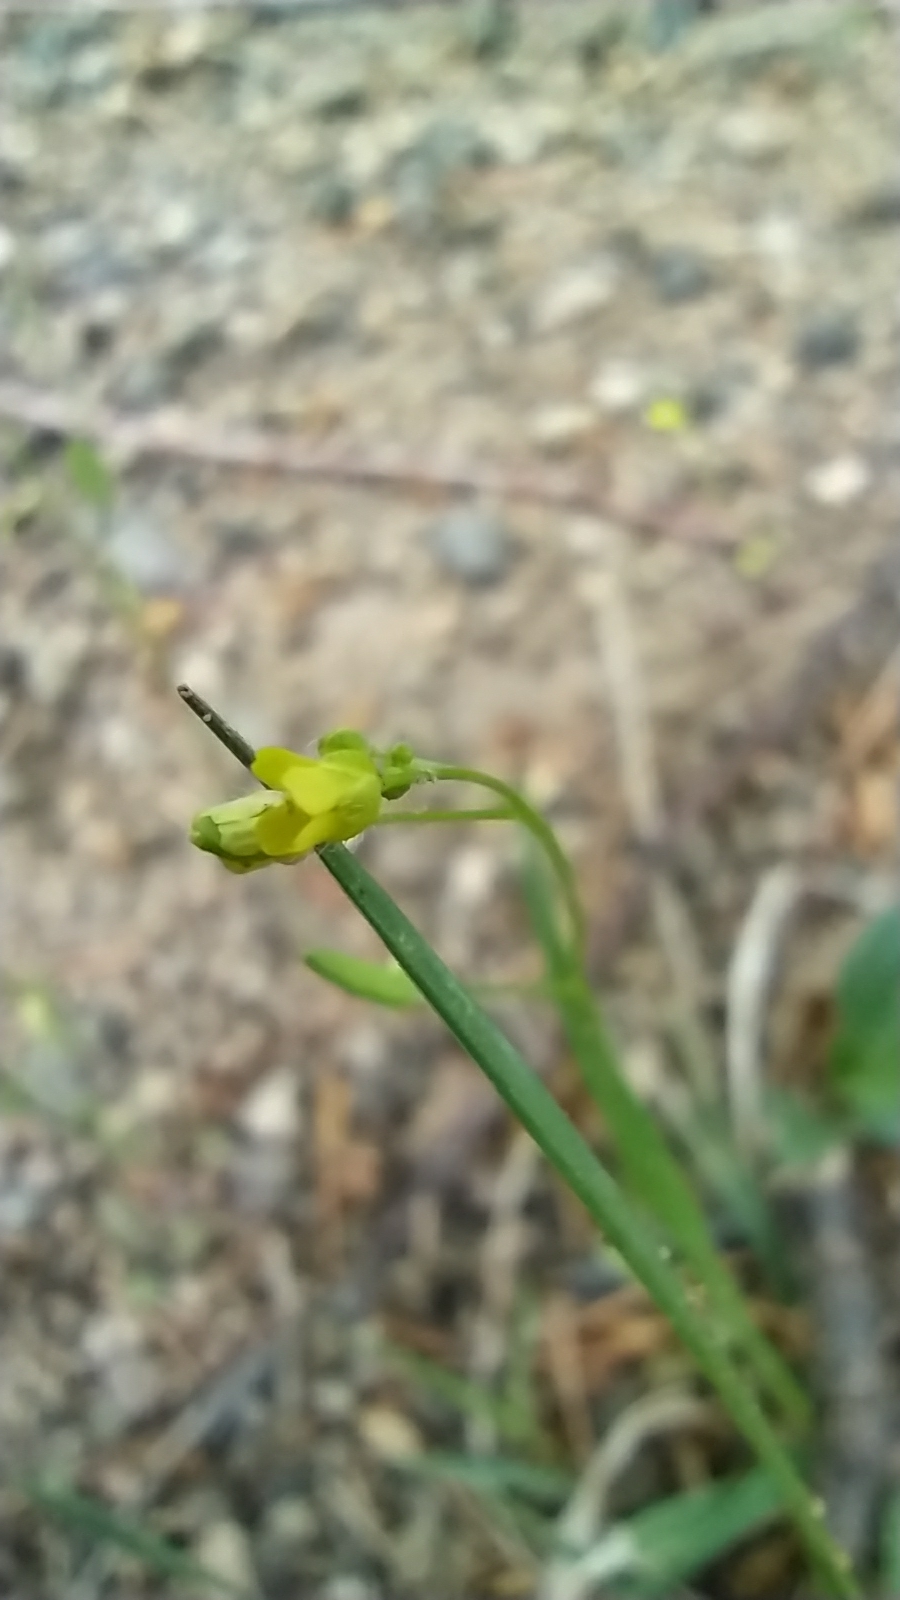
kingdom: Plantae
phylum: Tracheophyta
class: Magnoliopsida
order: Brassicales
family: Brassicaceae
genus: Draba
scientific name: Draba nemorosa
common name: Wood whitlow-grass
